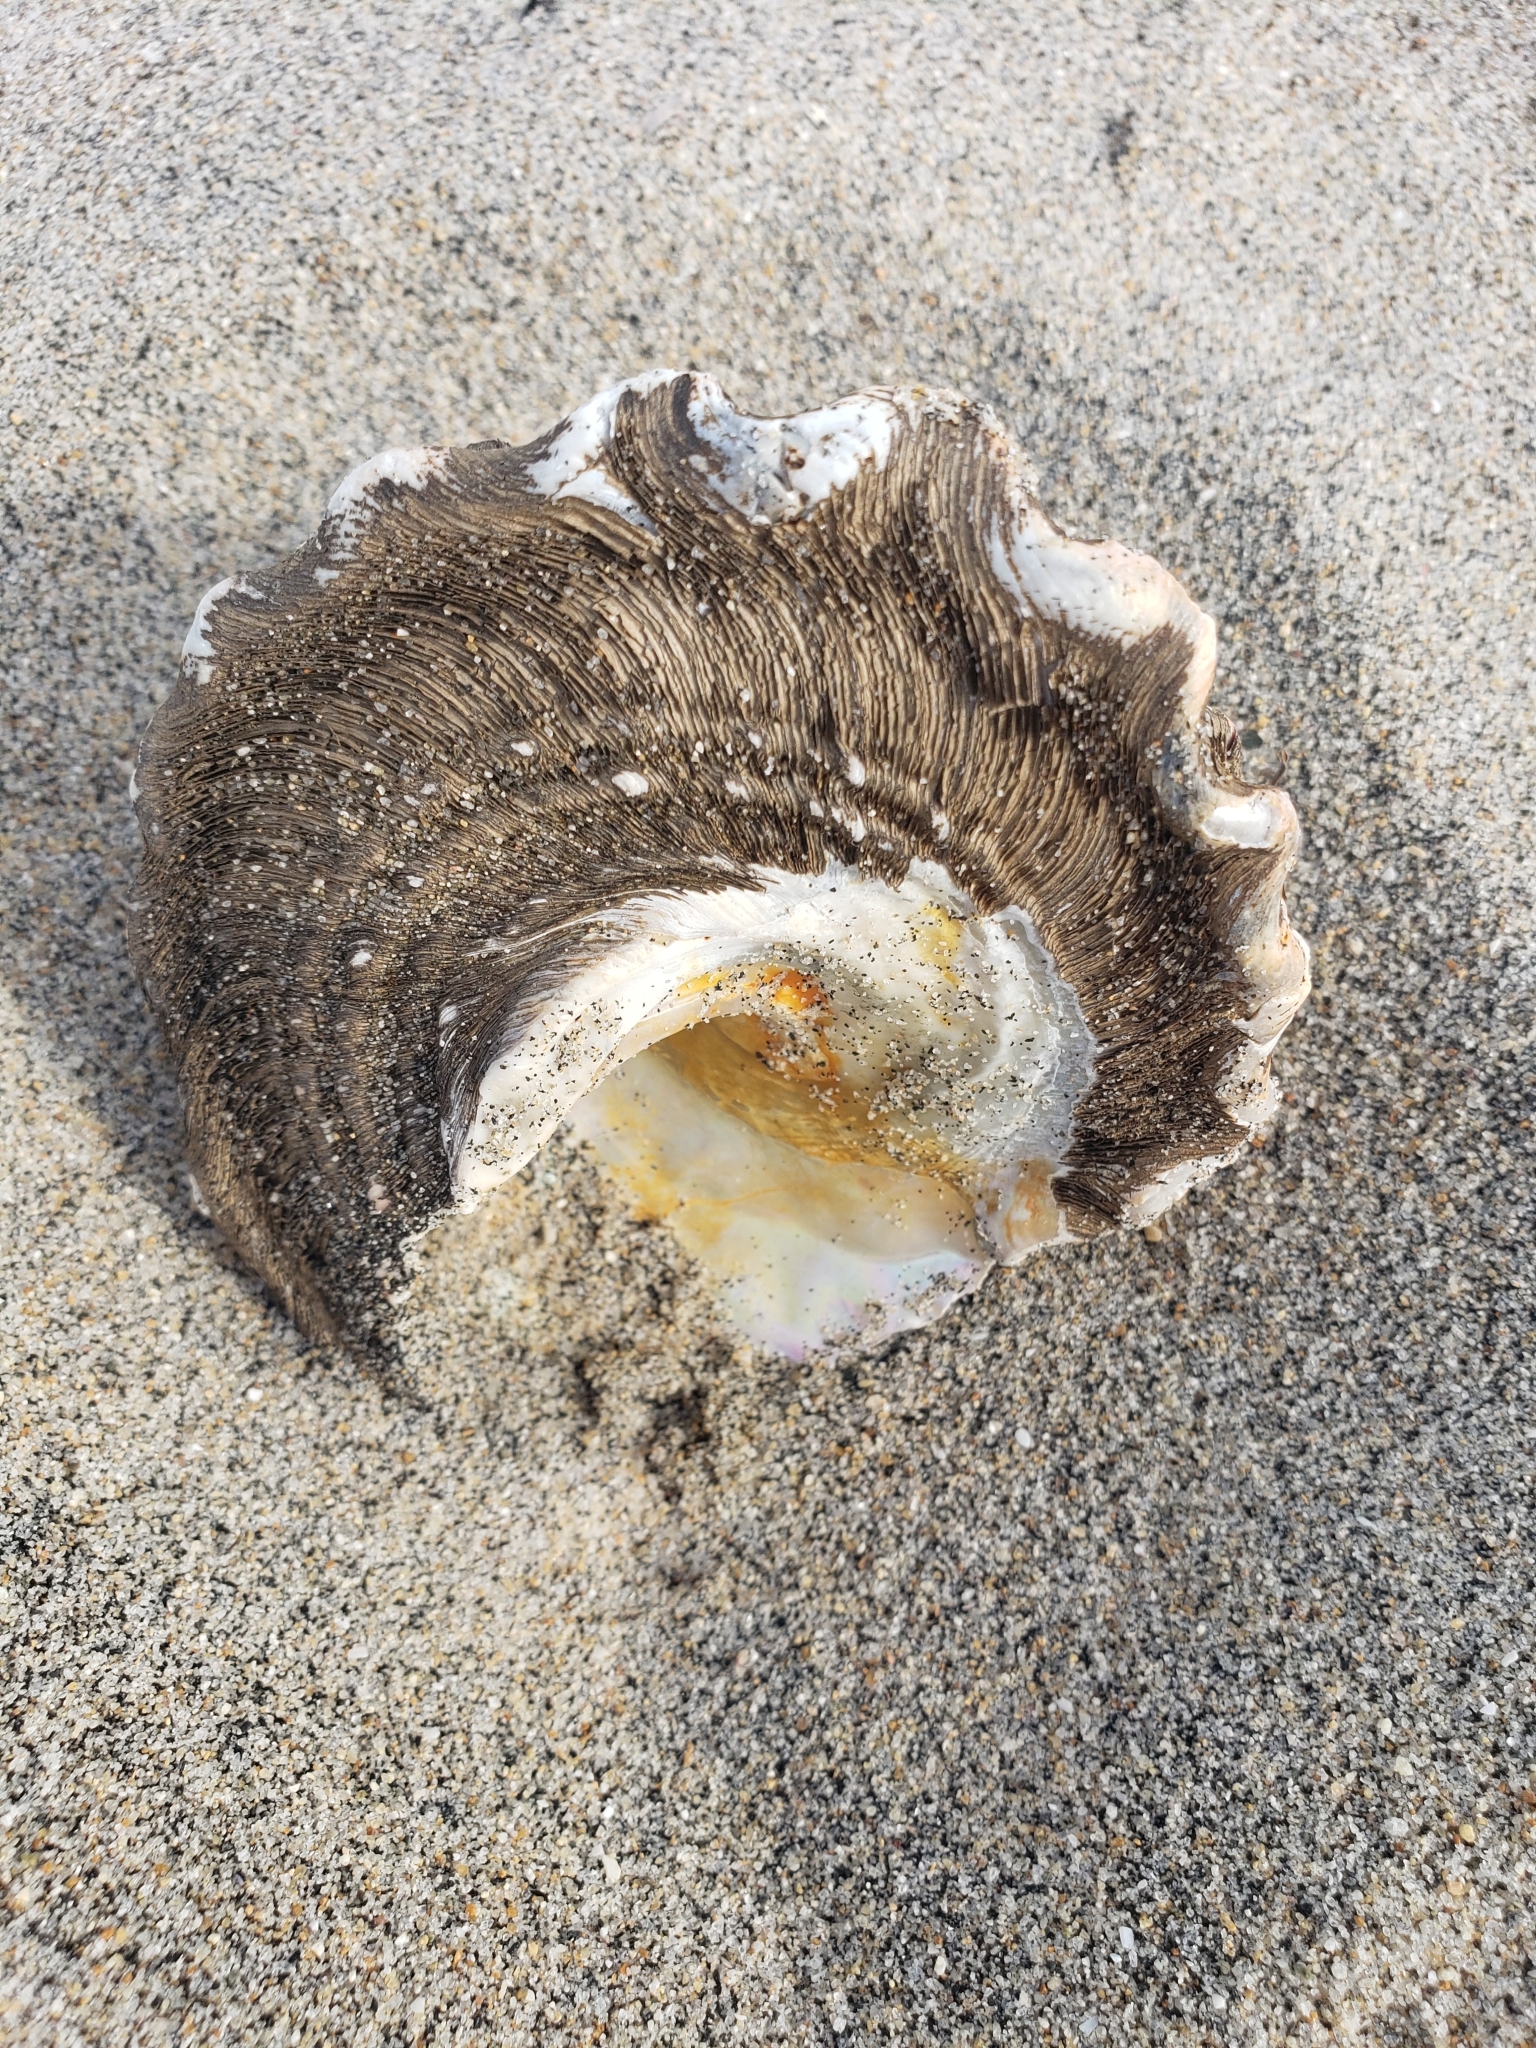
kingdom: Animalia
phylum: Mollusca
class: Gastropoda
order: Trochida
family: Turbinidae
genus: Megastraea
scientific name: Megastraea undosa
